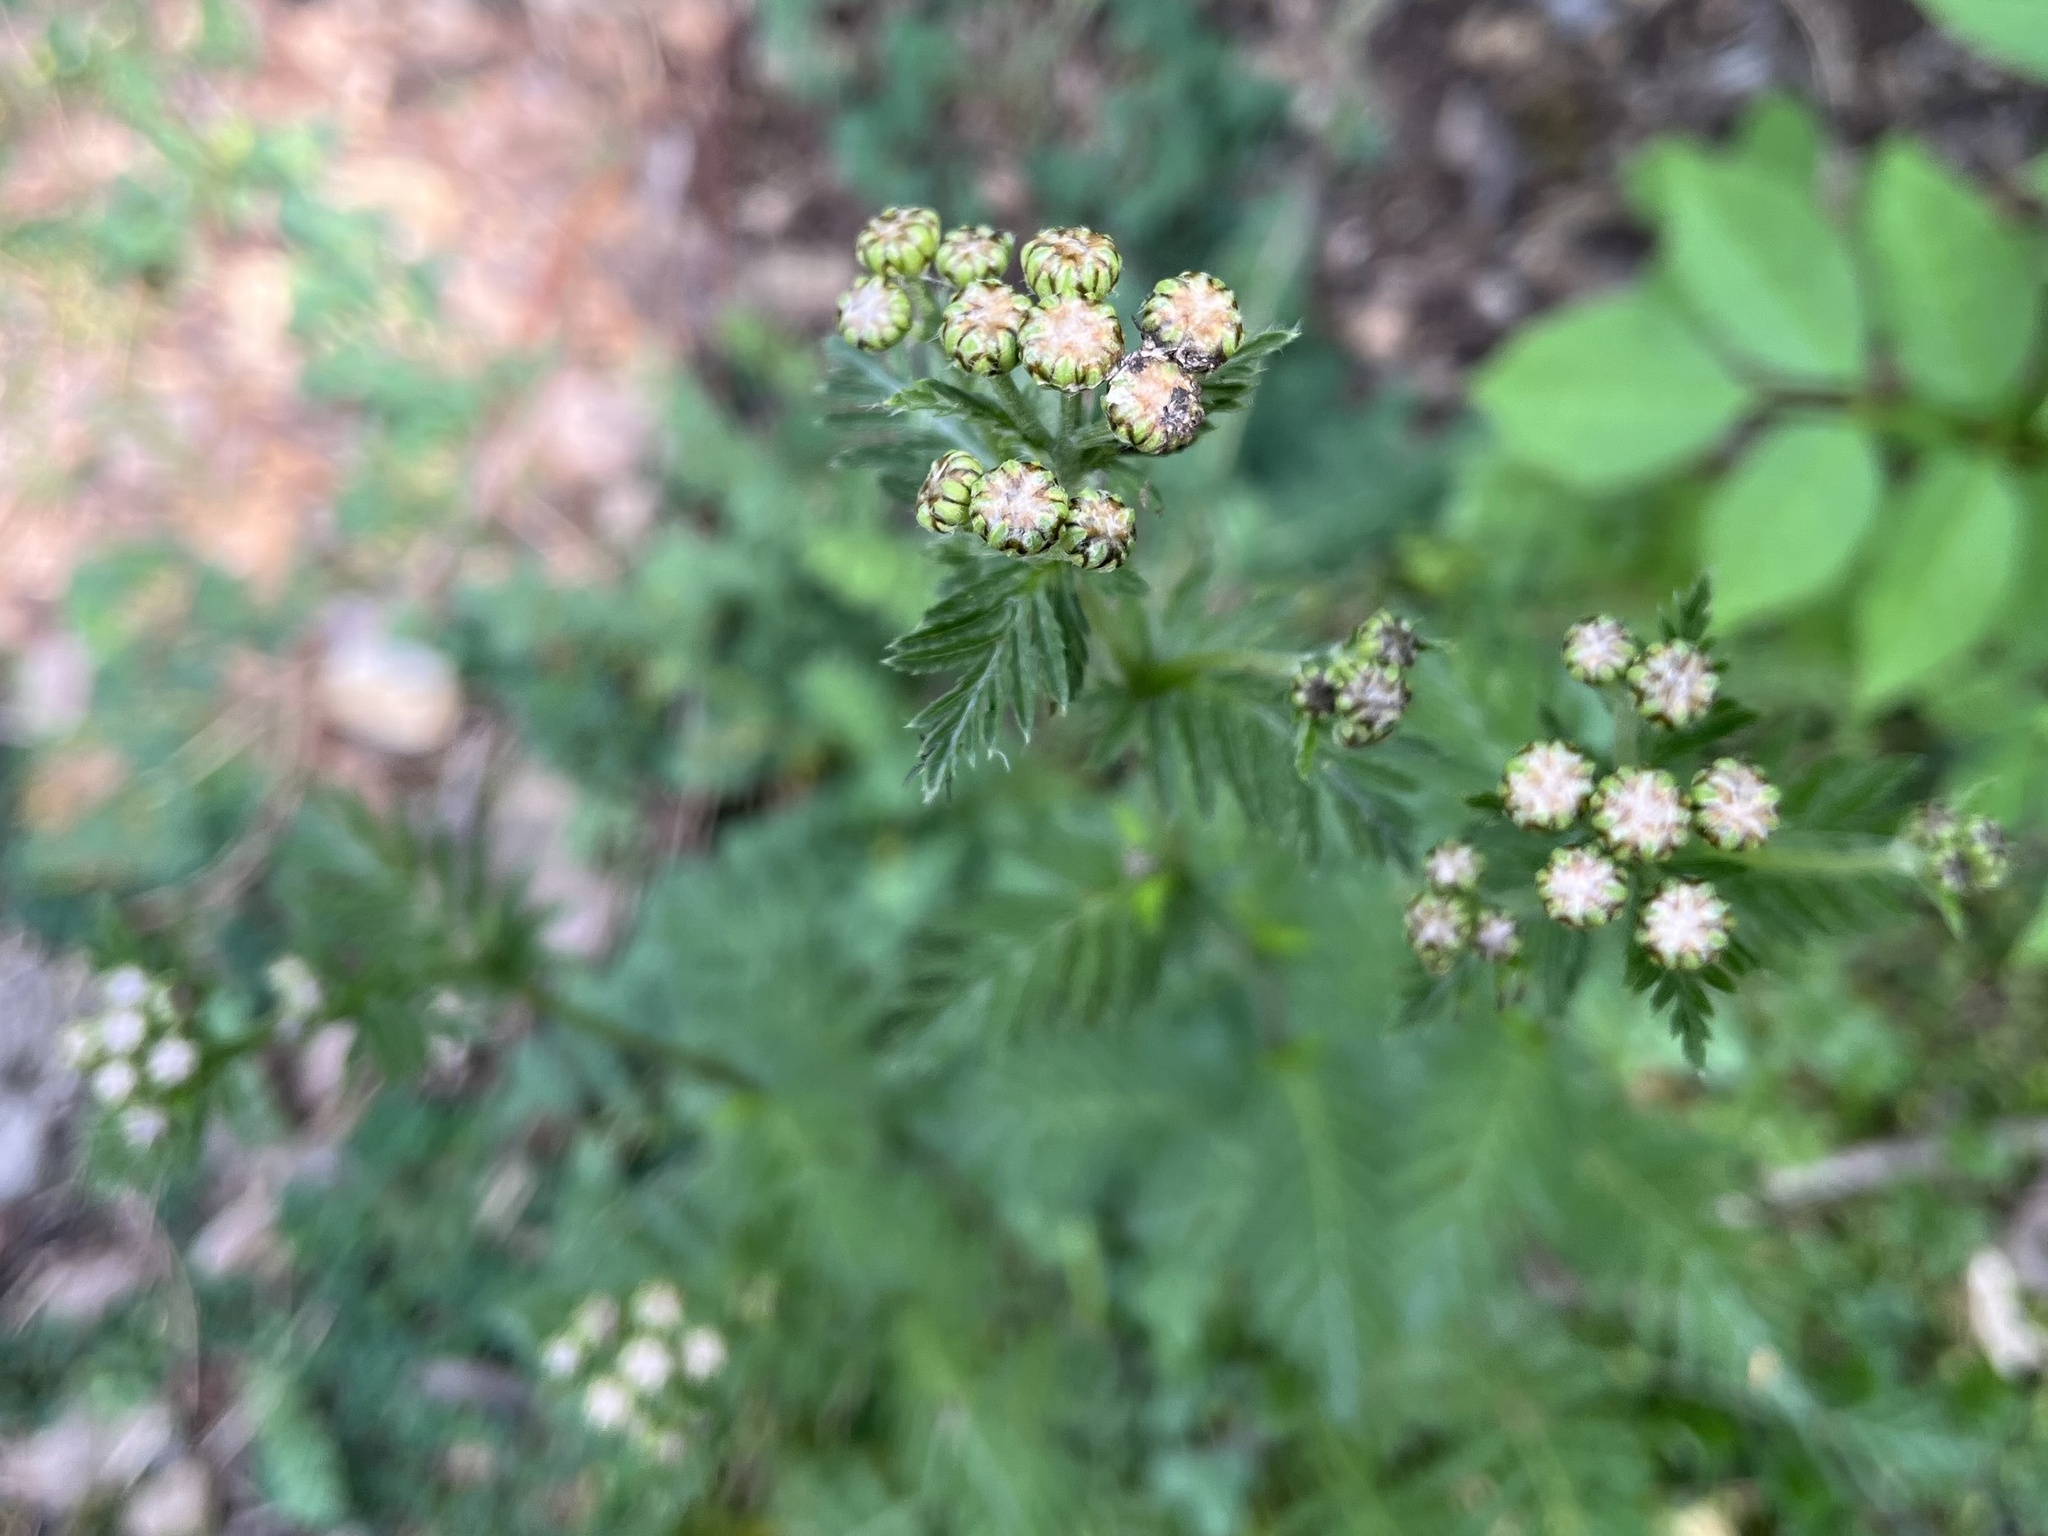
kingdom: Plantae
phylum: Tracheophyta
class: Magnoliopsida
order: Asterales
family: Asteraceae
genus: Tanacetum
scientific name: Tanacetum corymbosum
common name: Scentless feverfew
